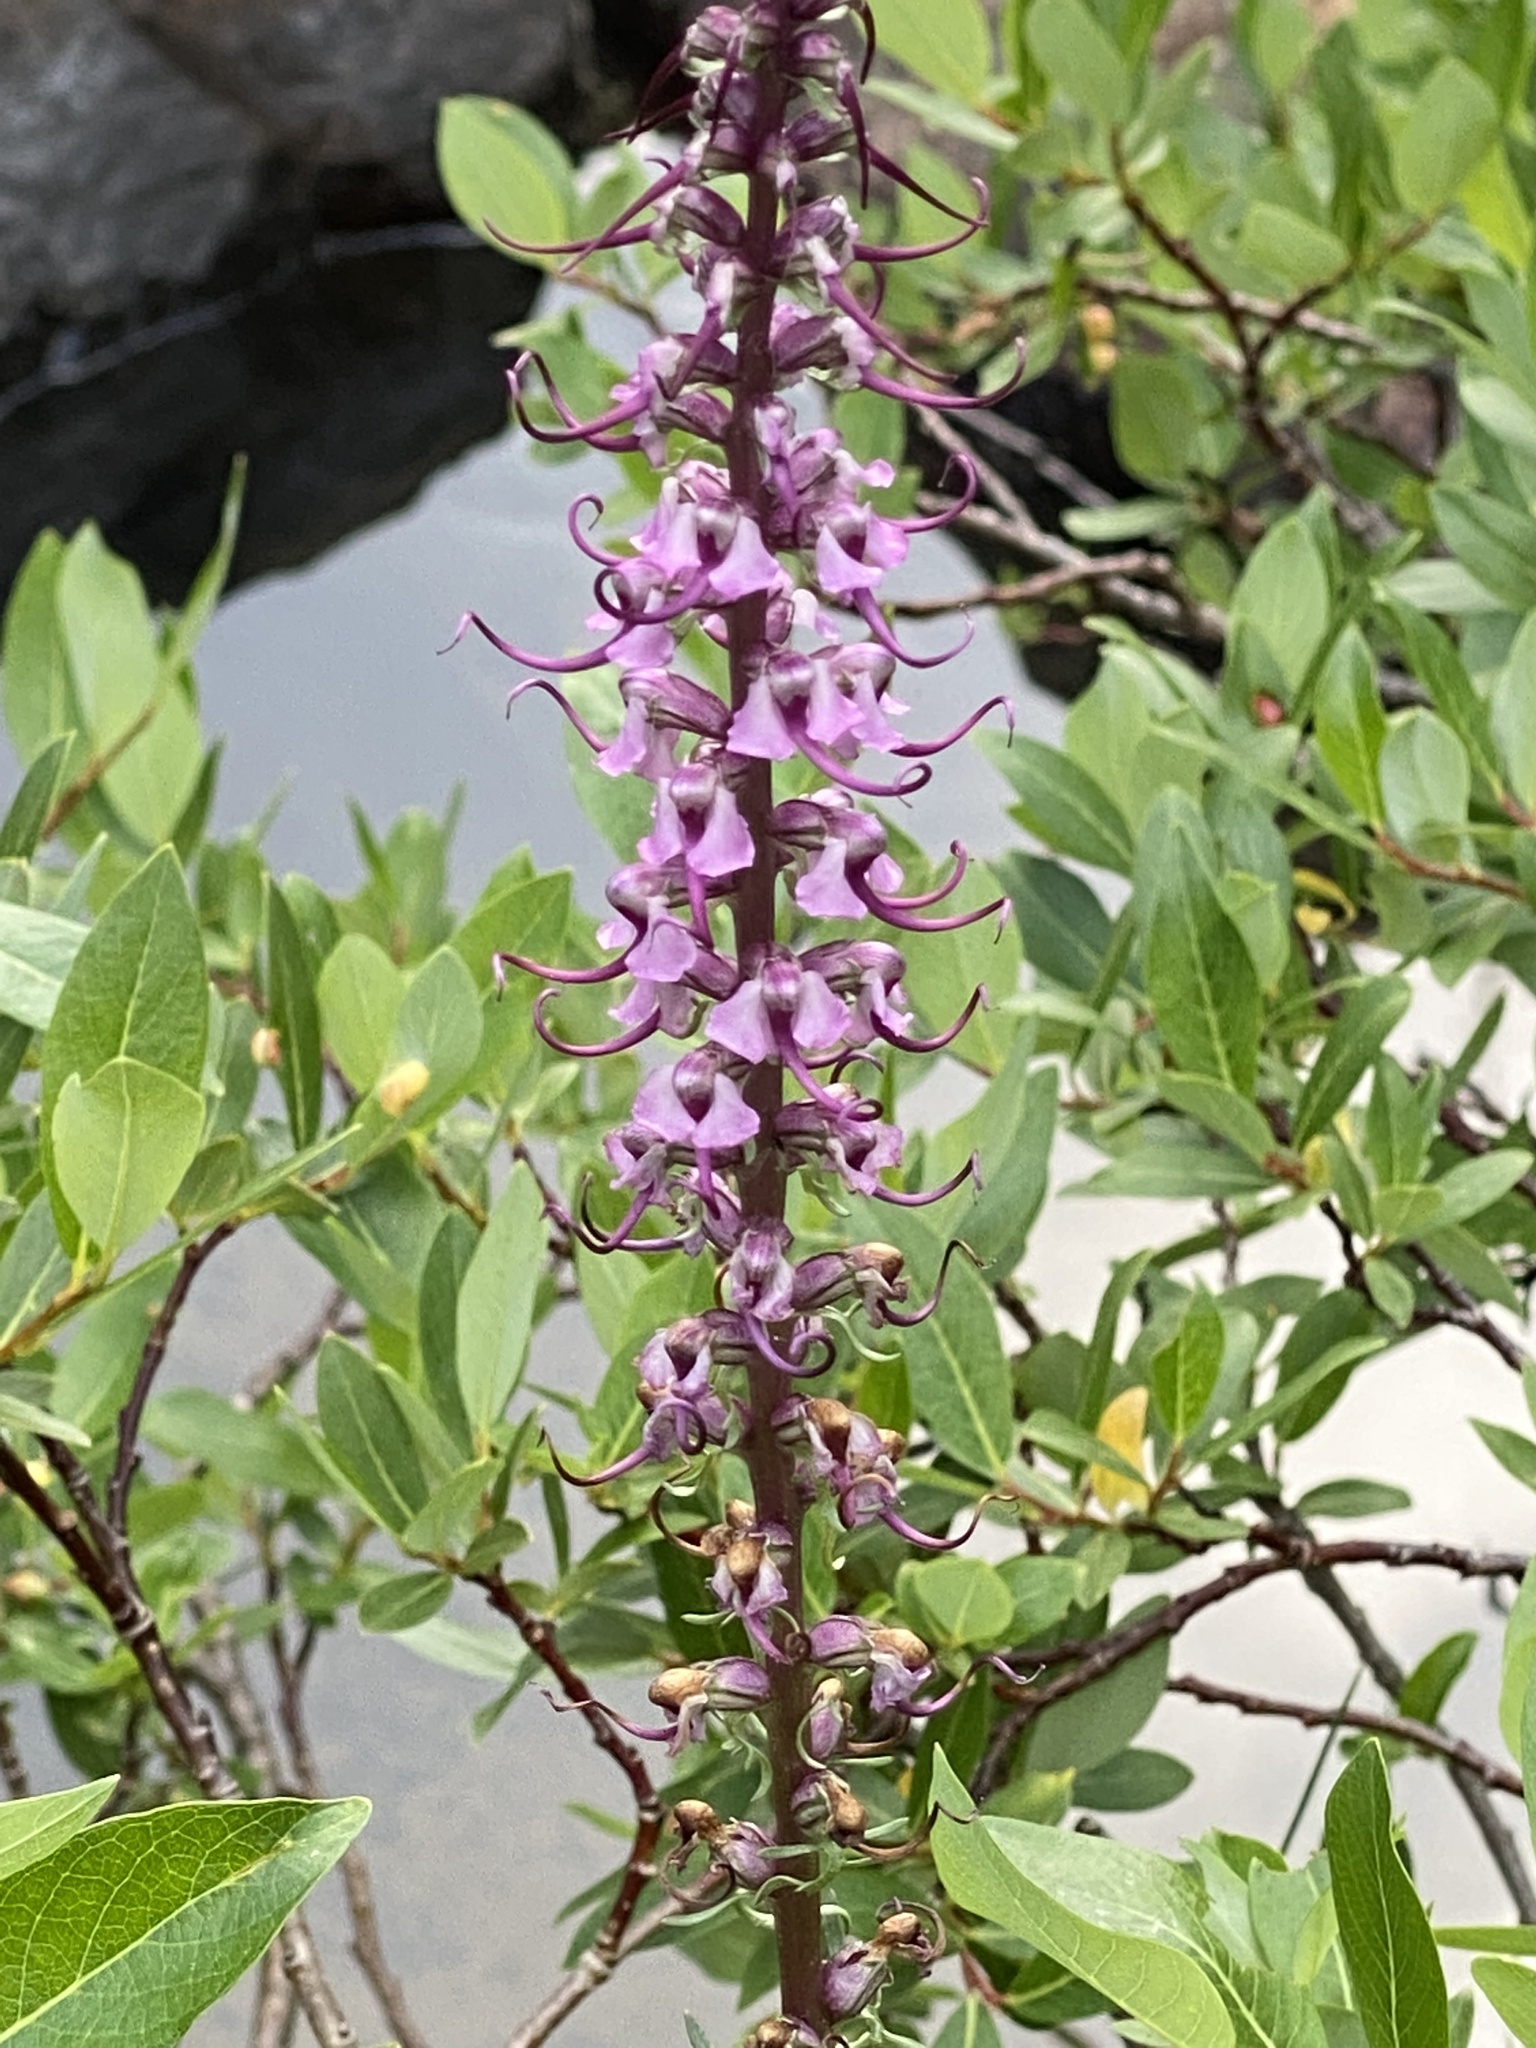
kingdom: Plantae
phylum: Tracheophyta
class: Magnoliopsida
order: Lamiales
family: Orobanchaceae
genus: Pedicularis
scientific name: Pedicularis groenlandica
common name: Elephant's-head
